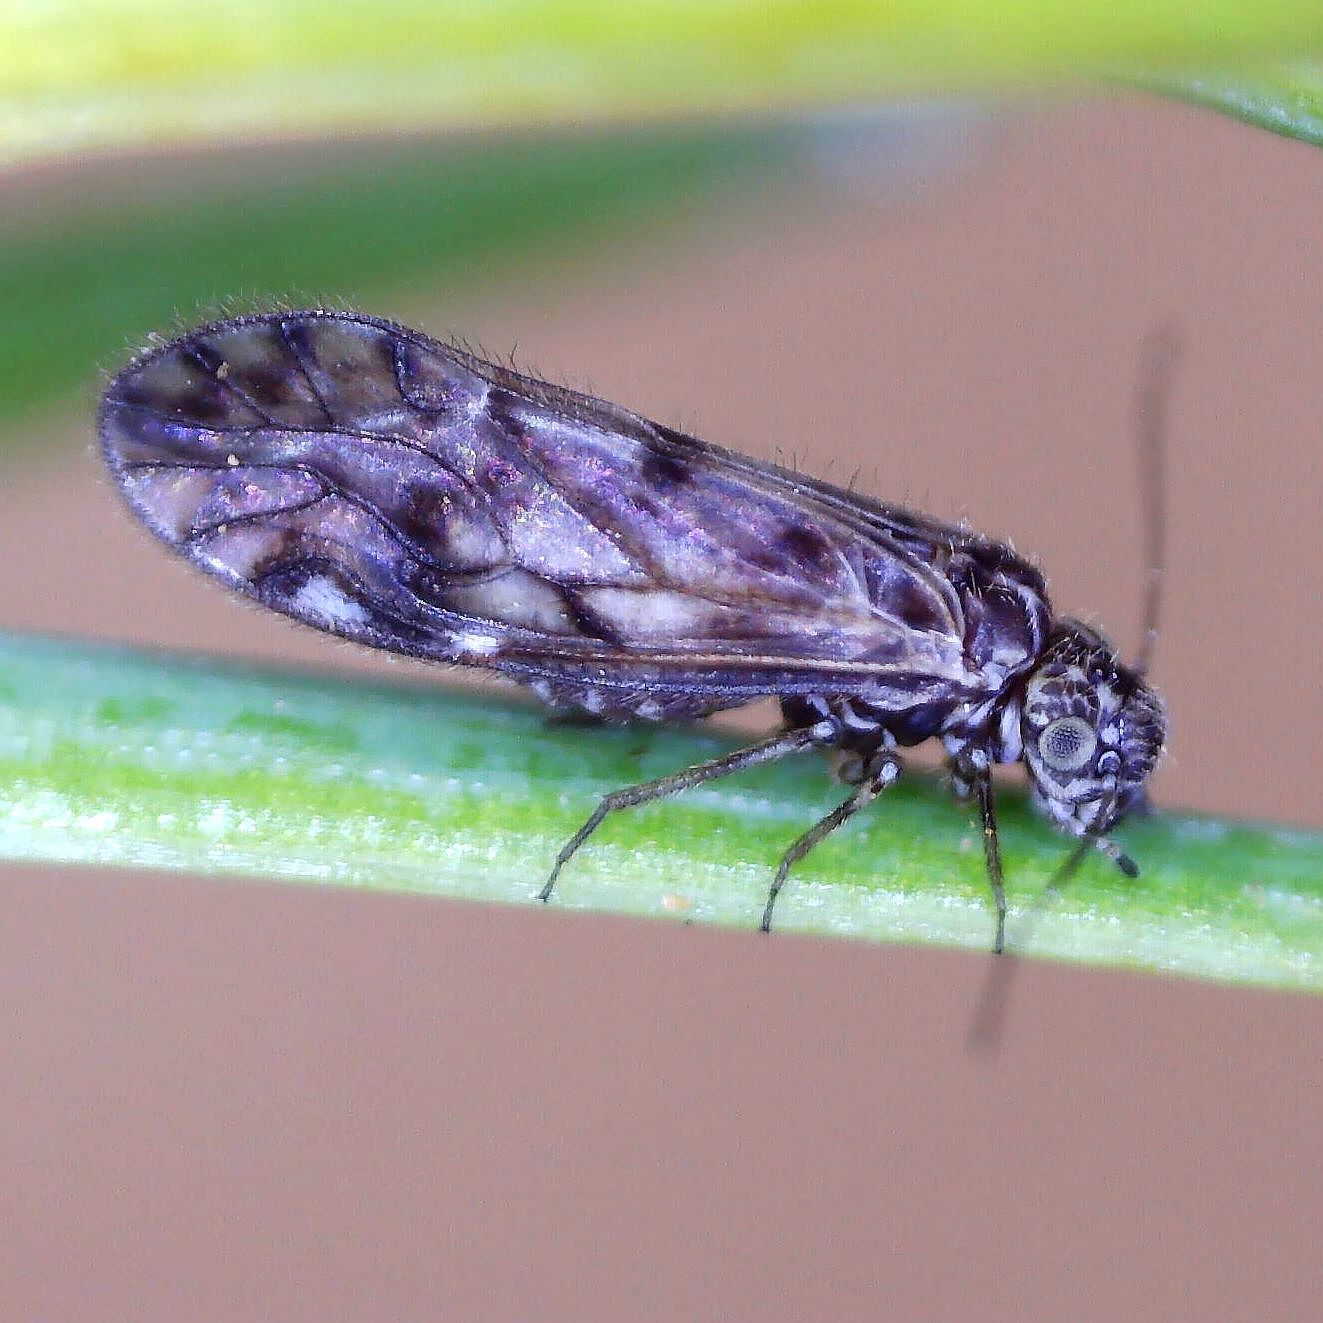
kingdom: Animalia
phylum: Arthropoda
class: Insecta
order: Psocodea
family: Philotarsidae
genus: Philotarsus
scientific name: Philotarsus parviceps
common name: Bark louse
